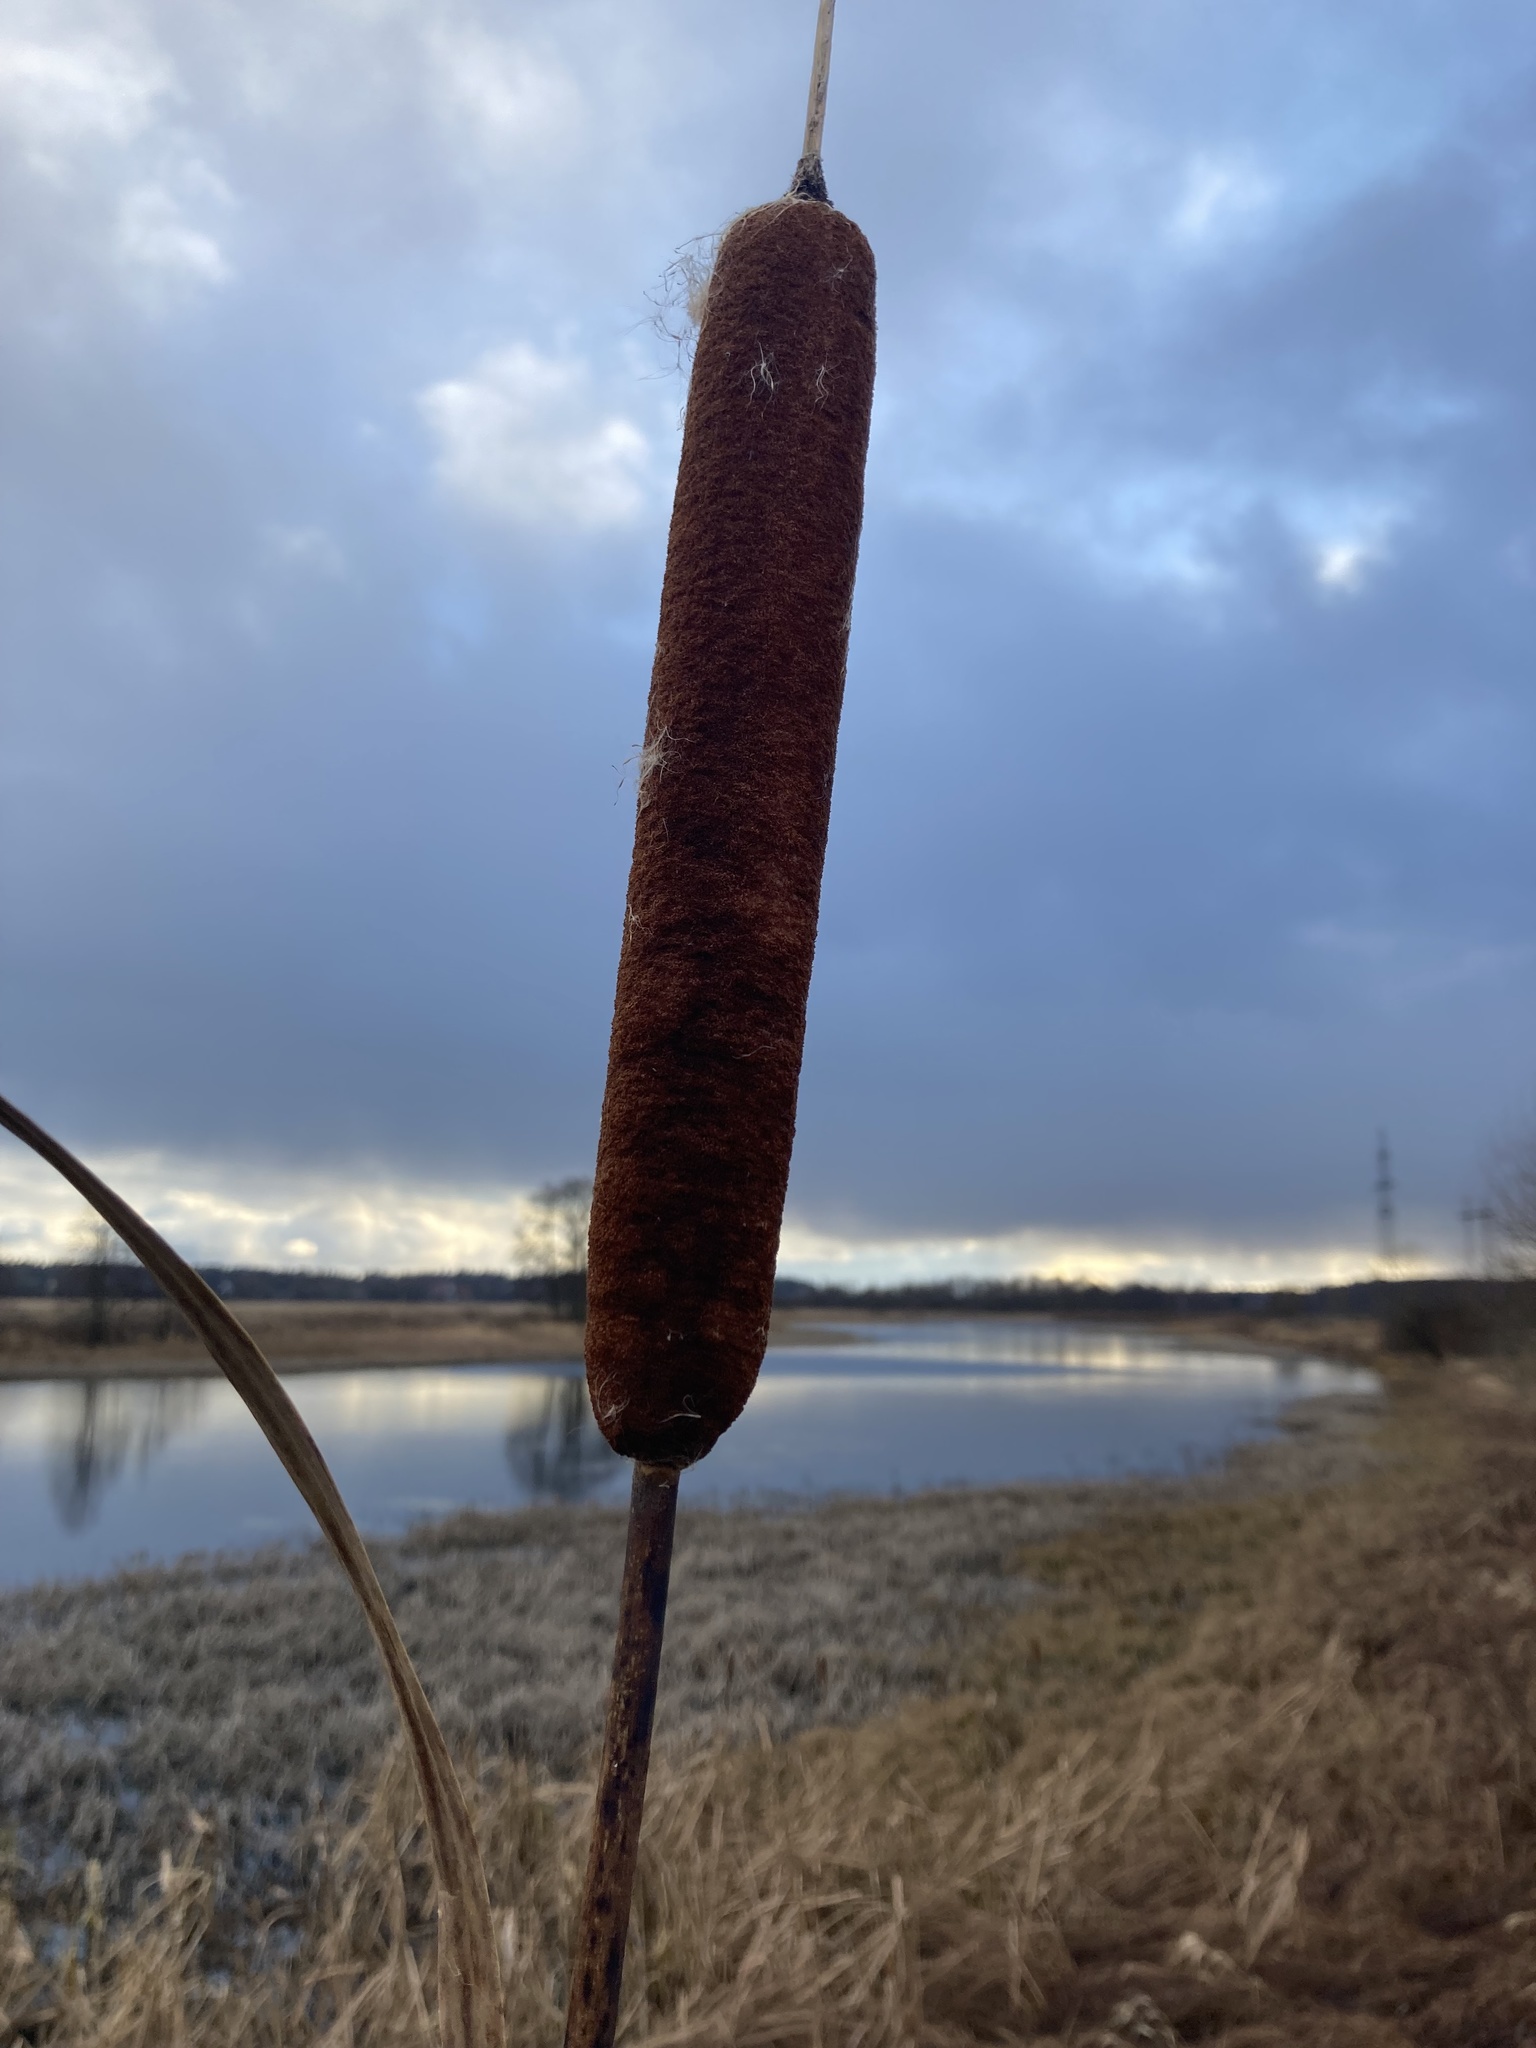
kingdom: Plantae
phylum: Tracheophyta
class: Liliopsida
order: Poales
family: Typhaceae
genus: Typha
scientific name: Typha latifolia
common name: Broadleaf cattail
